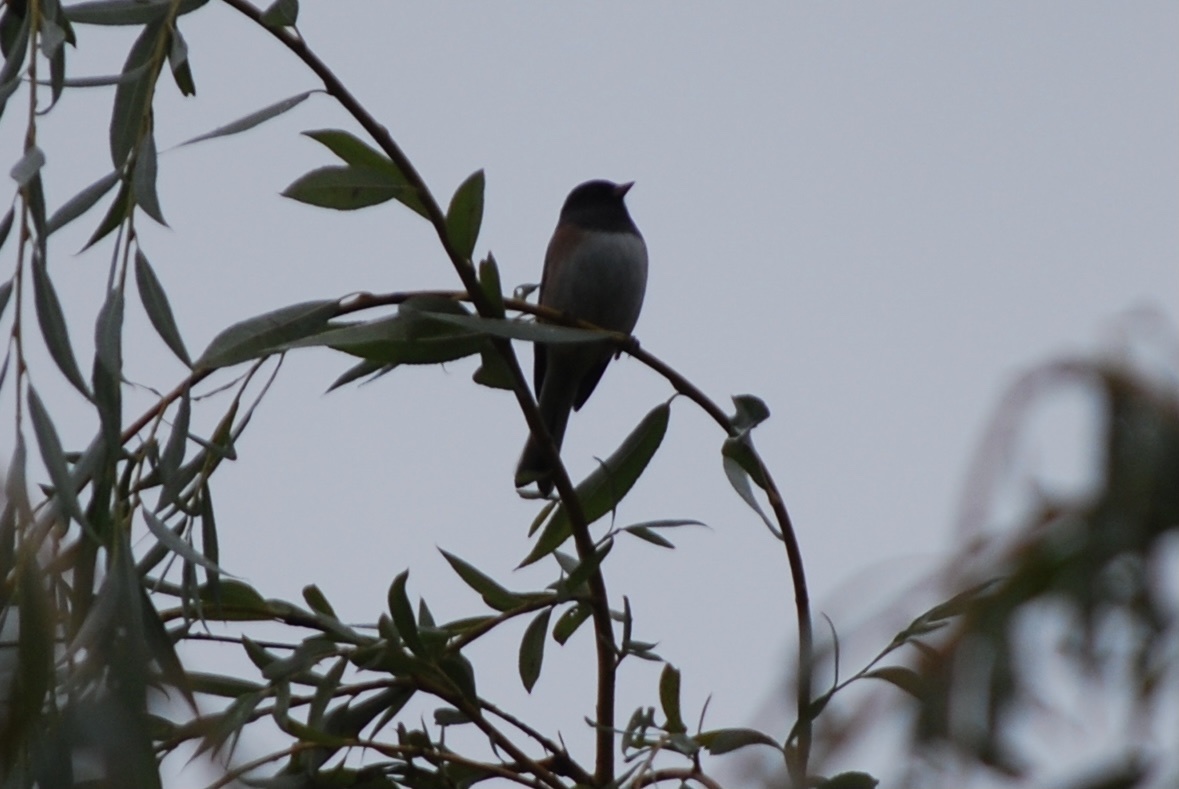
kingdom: Animalia
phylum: Chordata
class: Aves
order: Passeriformes
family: Passerellidae
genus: Junco
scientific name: Junco hyemalis
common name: Dark-eyed junco
